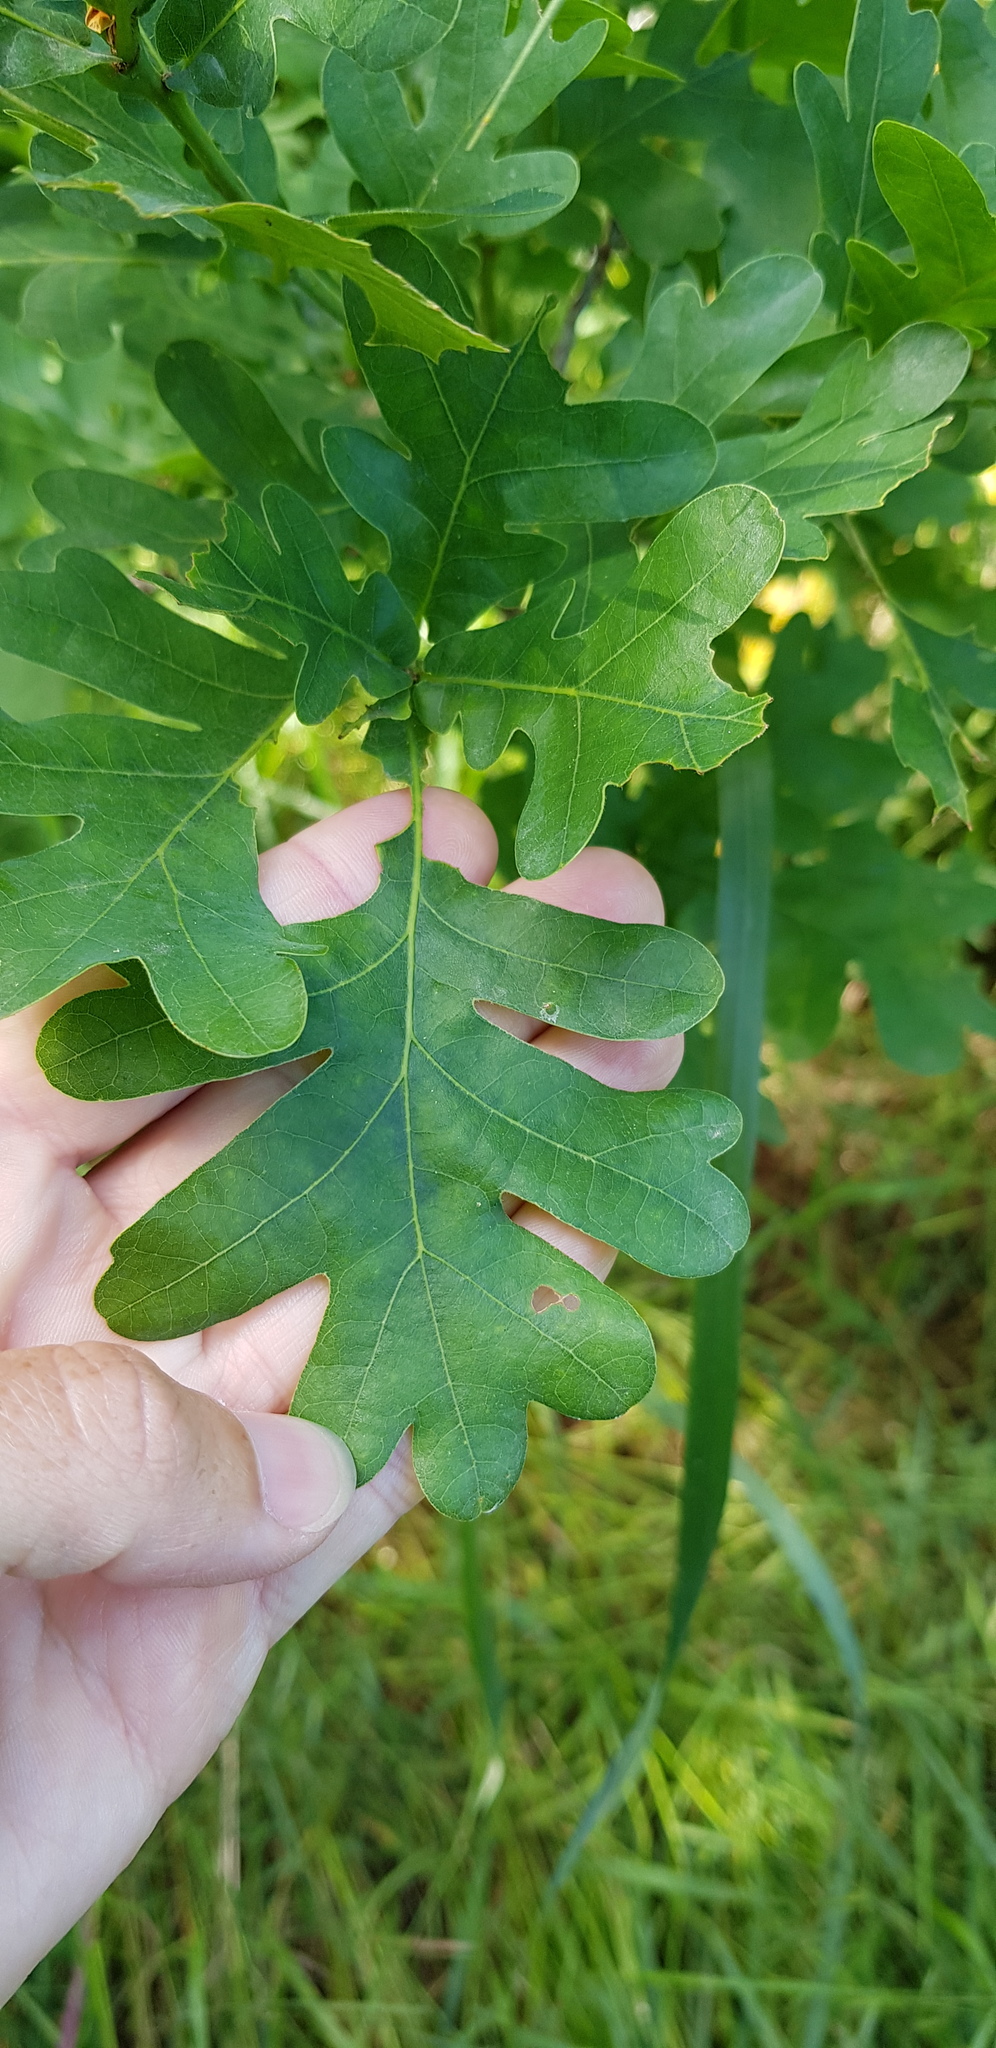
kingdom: Plantae
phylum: Tracheophyta
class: Magnoliopsida
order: Fagales
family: Fagaceae
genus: Quercus
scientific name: Quercus petraea
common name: Sessile oak
